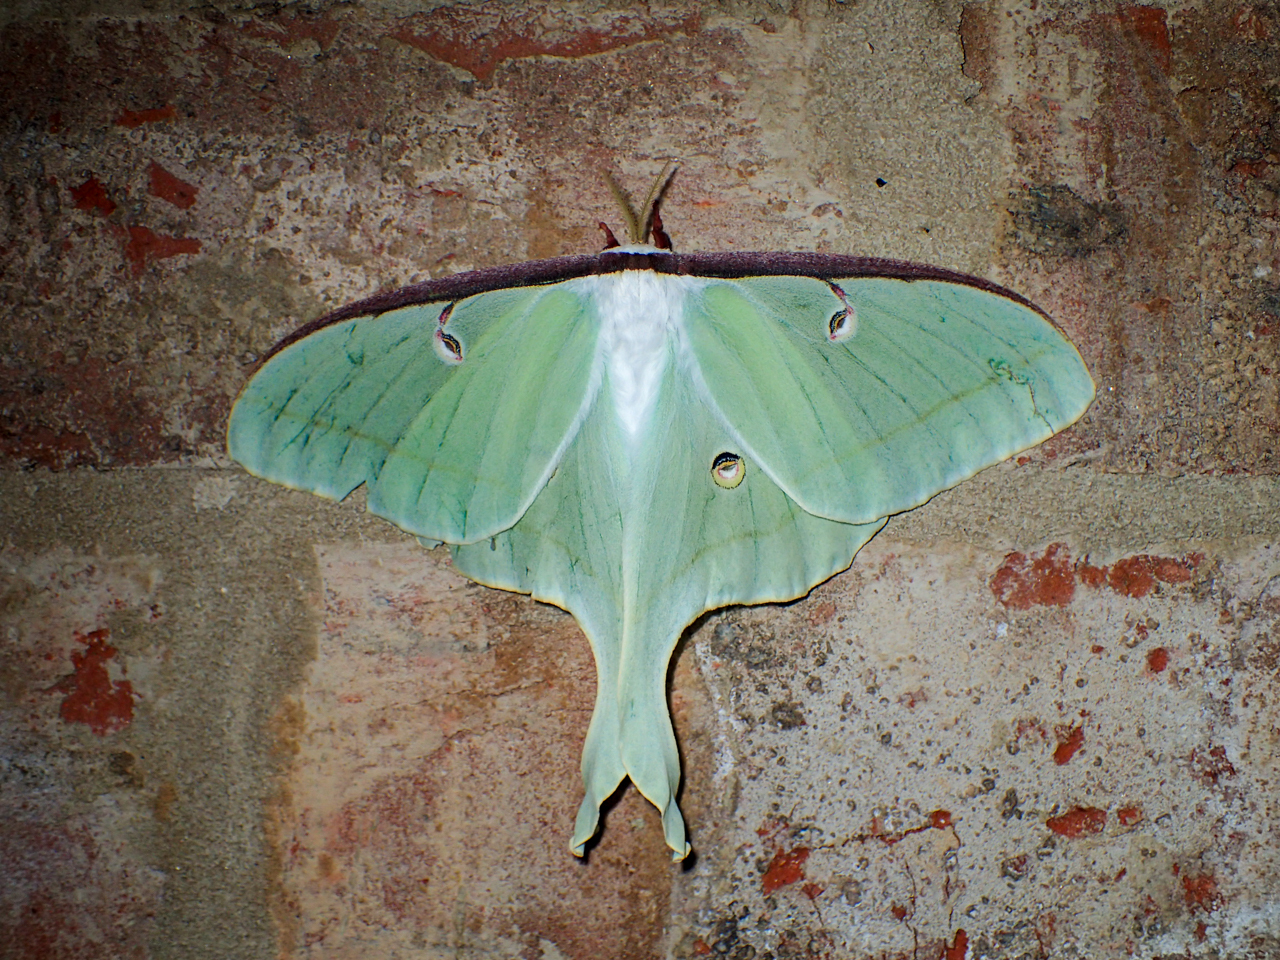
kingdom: Animalia
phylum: Arthropoda
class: Insecta
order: Lepidoptera
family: Saturniidae
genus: Actias
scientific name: Actias luna
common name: Luna moth
